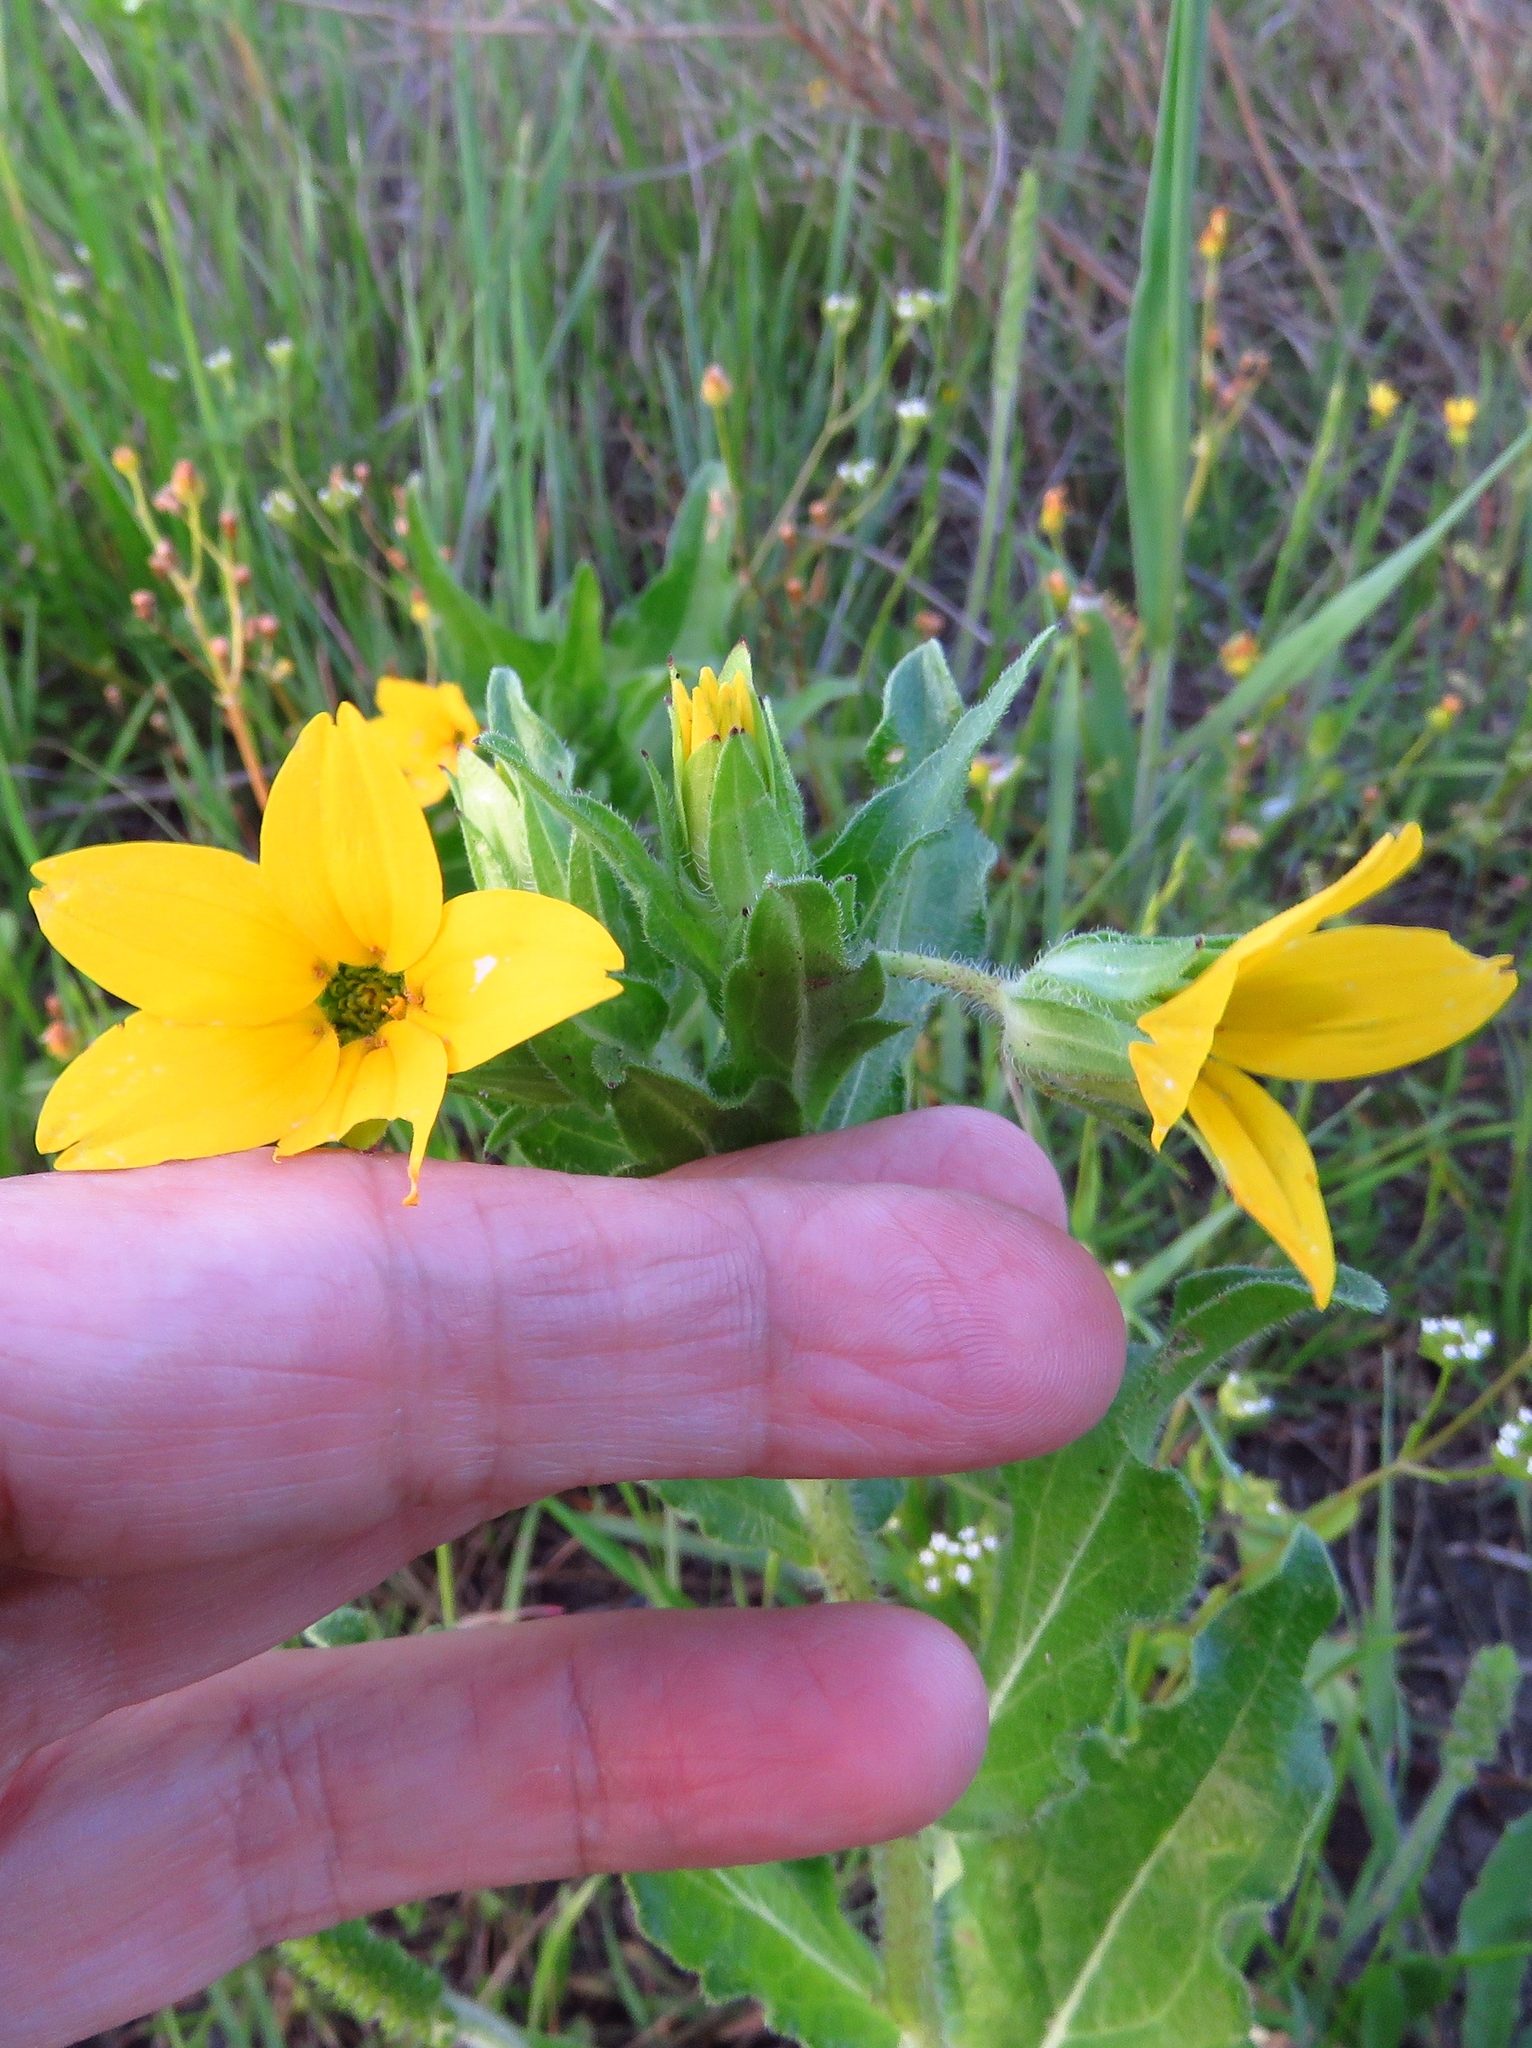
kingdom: Plantae
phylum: Tracheophyta
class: Magnoliopsida
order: Asterales
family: Asteraceae
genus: Lindheimera
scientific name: Lindheimera texana
